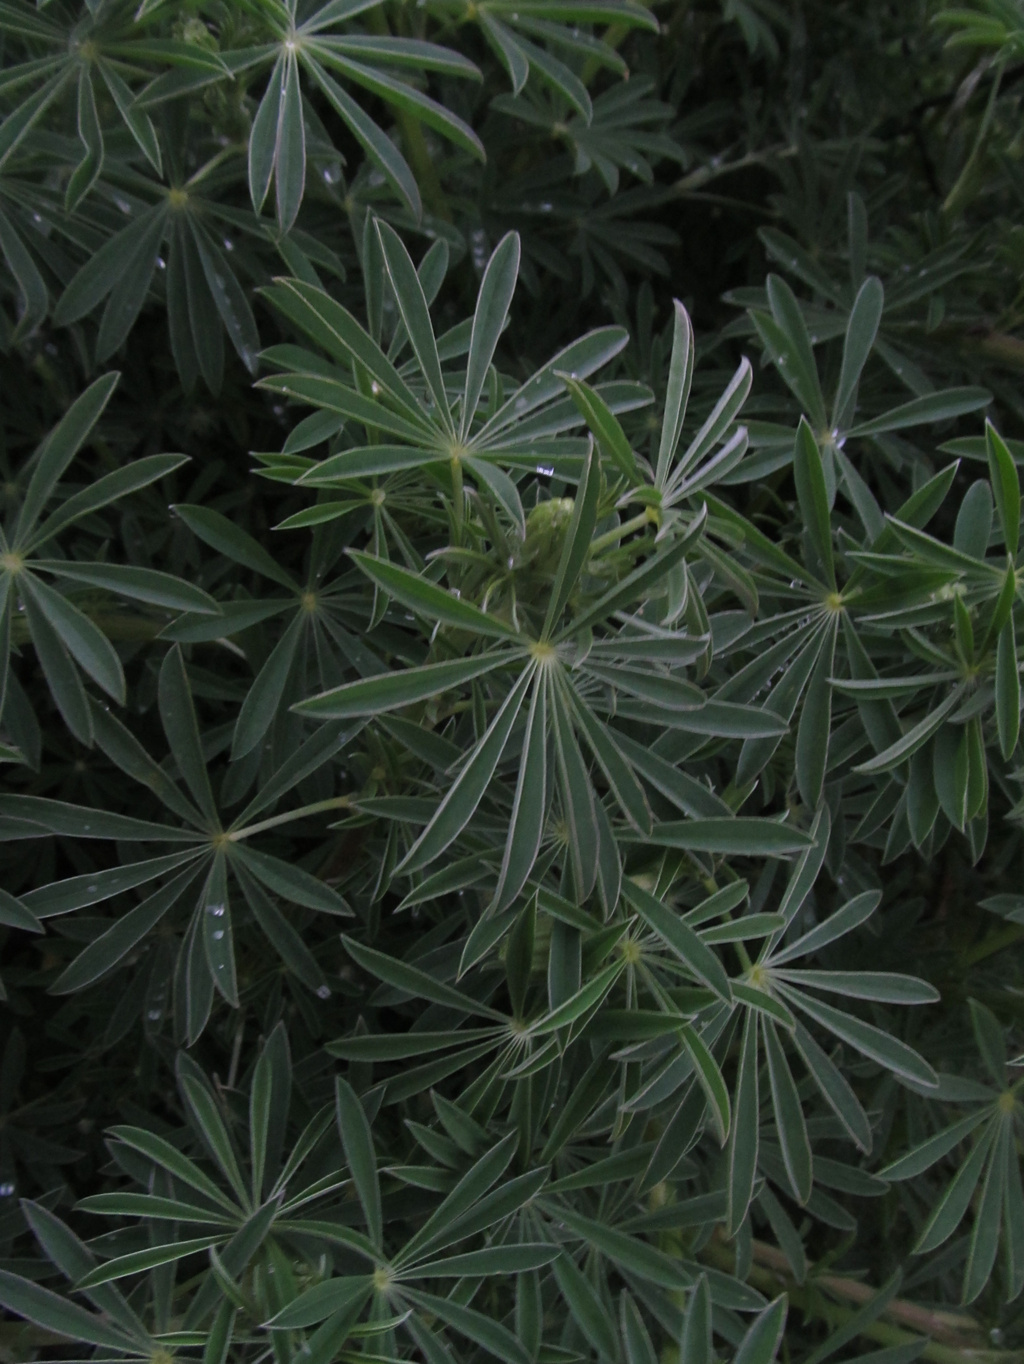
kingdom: Plantae
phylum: Tracheophyta
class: Magnoliopsida
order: Fabales
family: Fabaceae
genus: Lupinus
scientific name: Lupinus arboreus
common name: Yellow bush lupine
